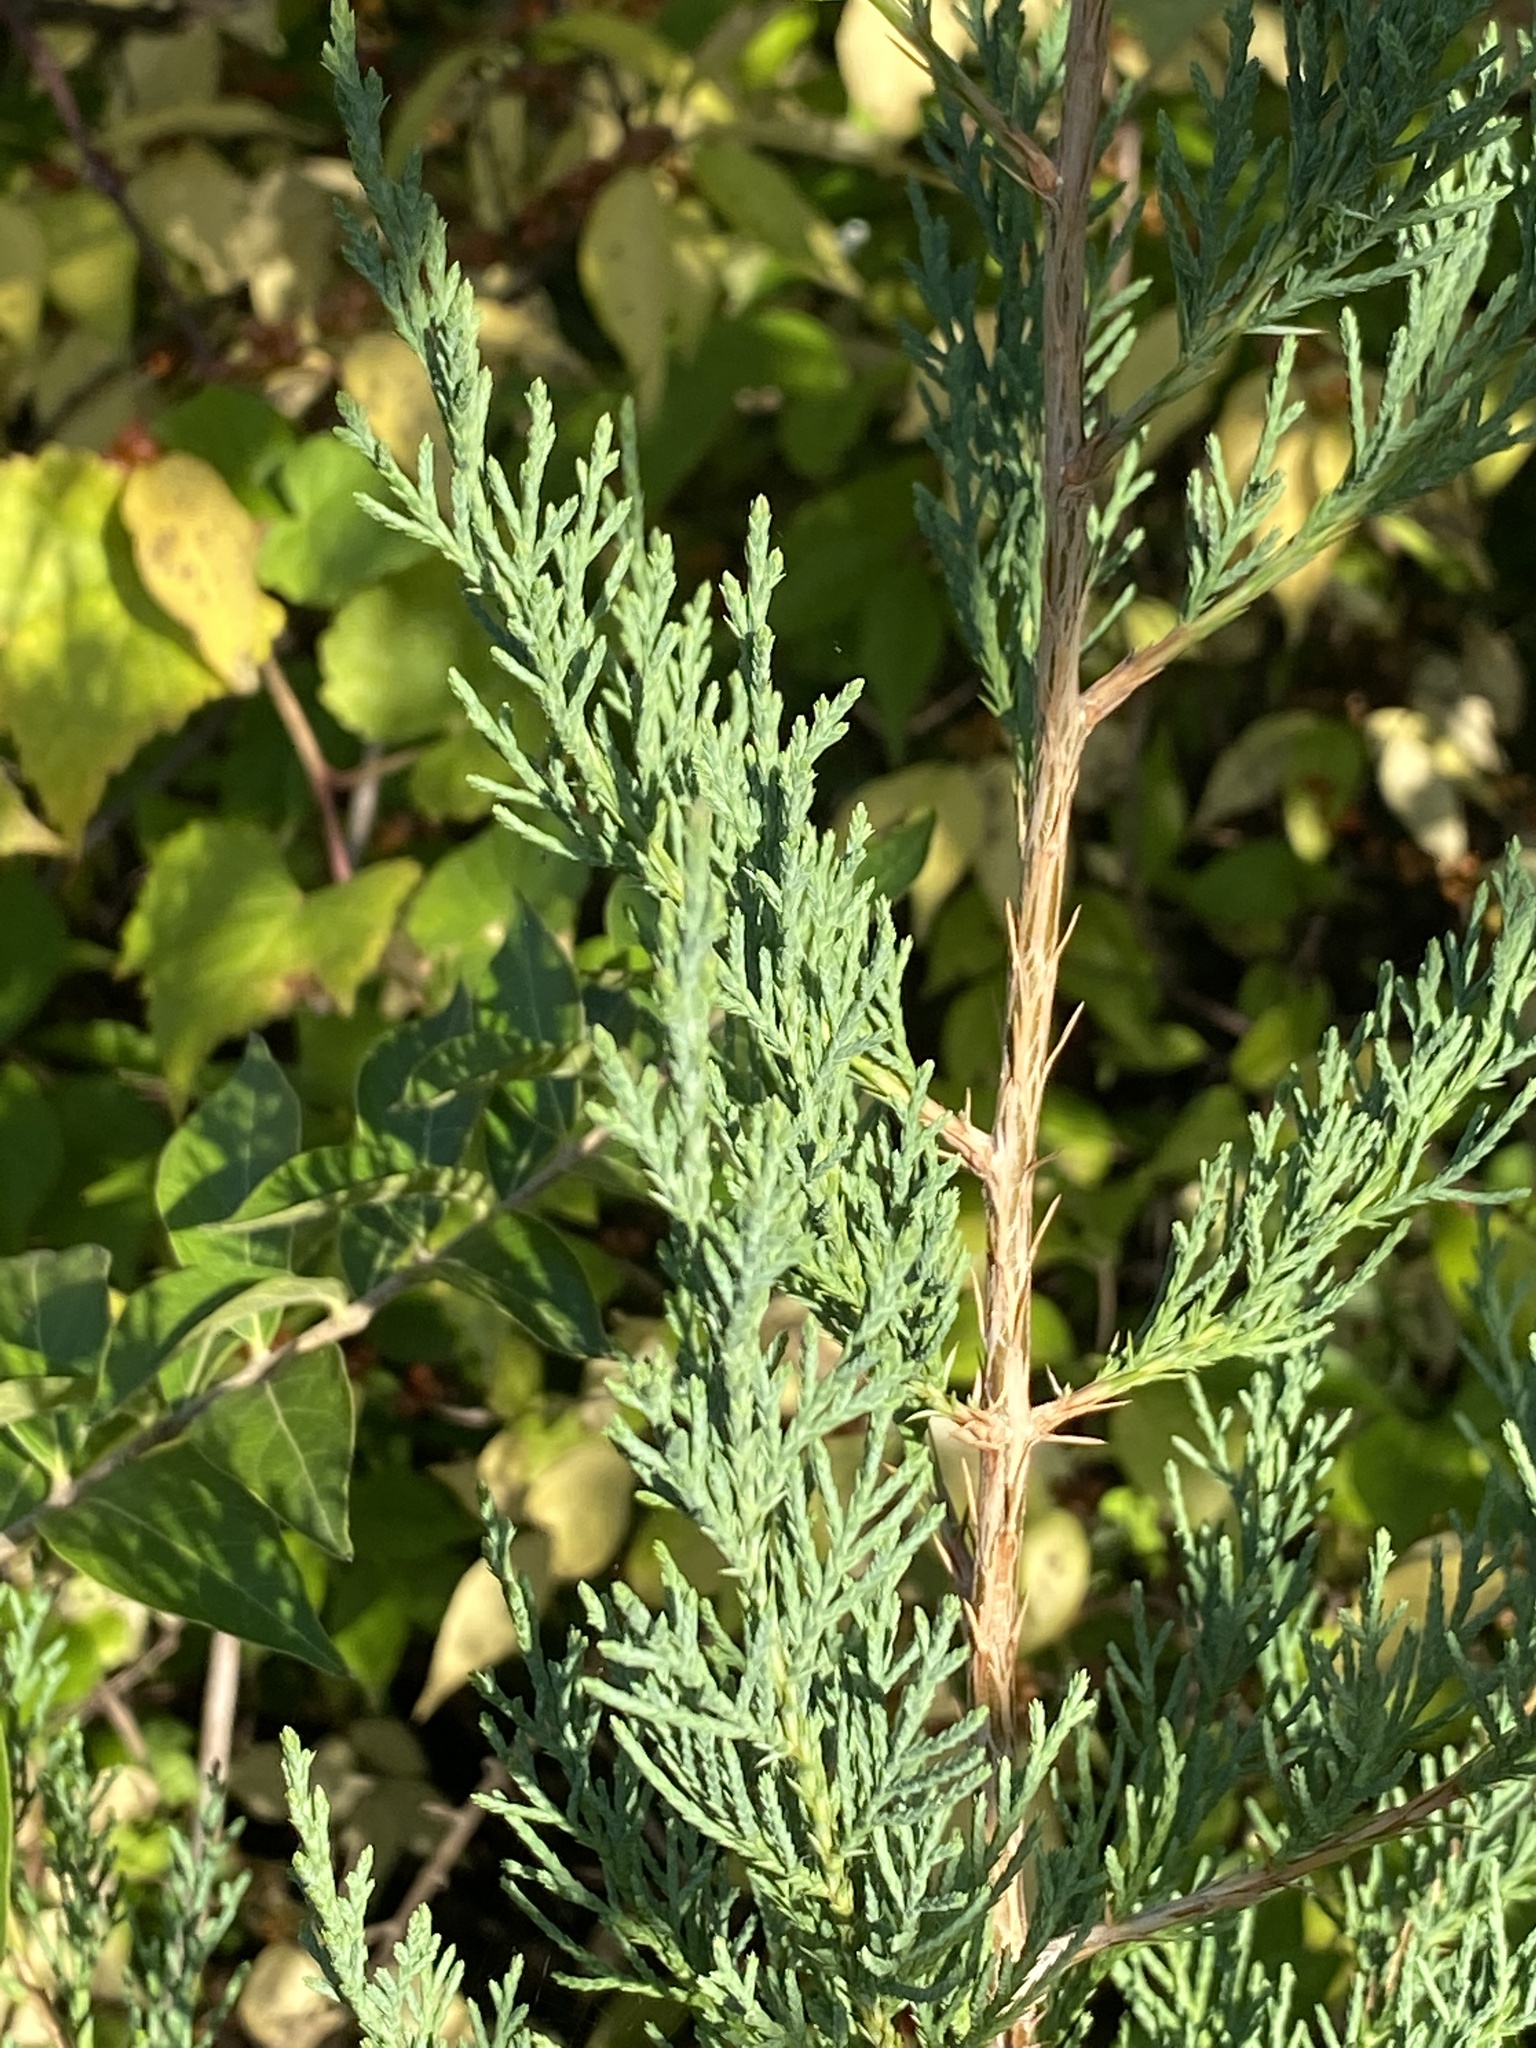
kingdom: Plantae
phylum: Tracheophyta
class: Pinopsida
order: Pinales
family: Cupressaceae
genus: Juniperus
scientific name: Juniperus virginiana
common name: Red juniper
